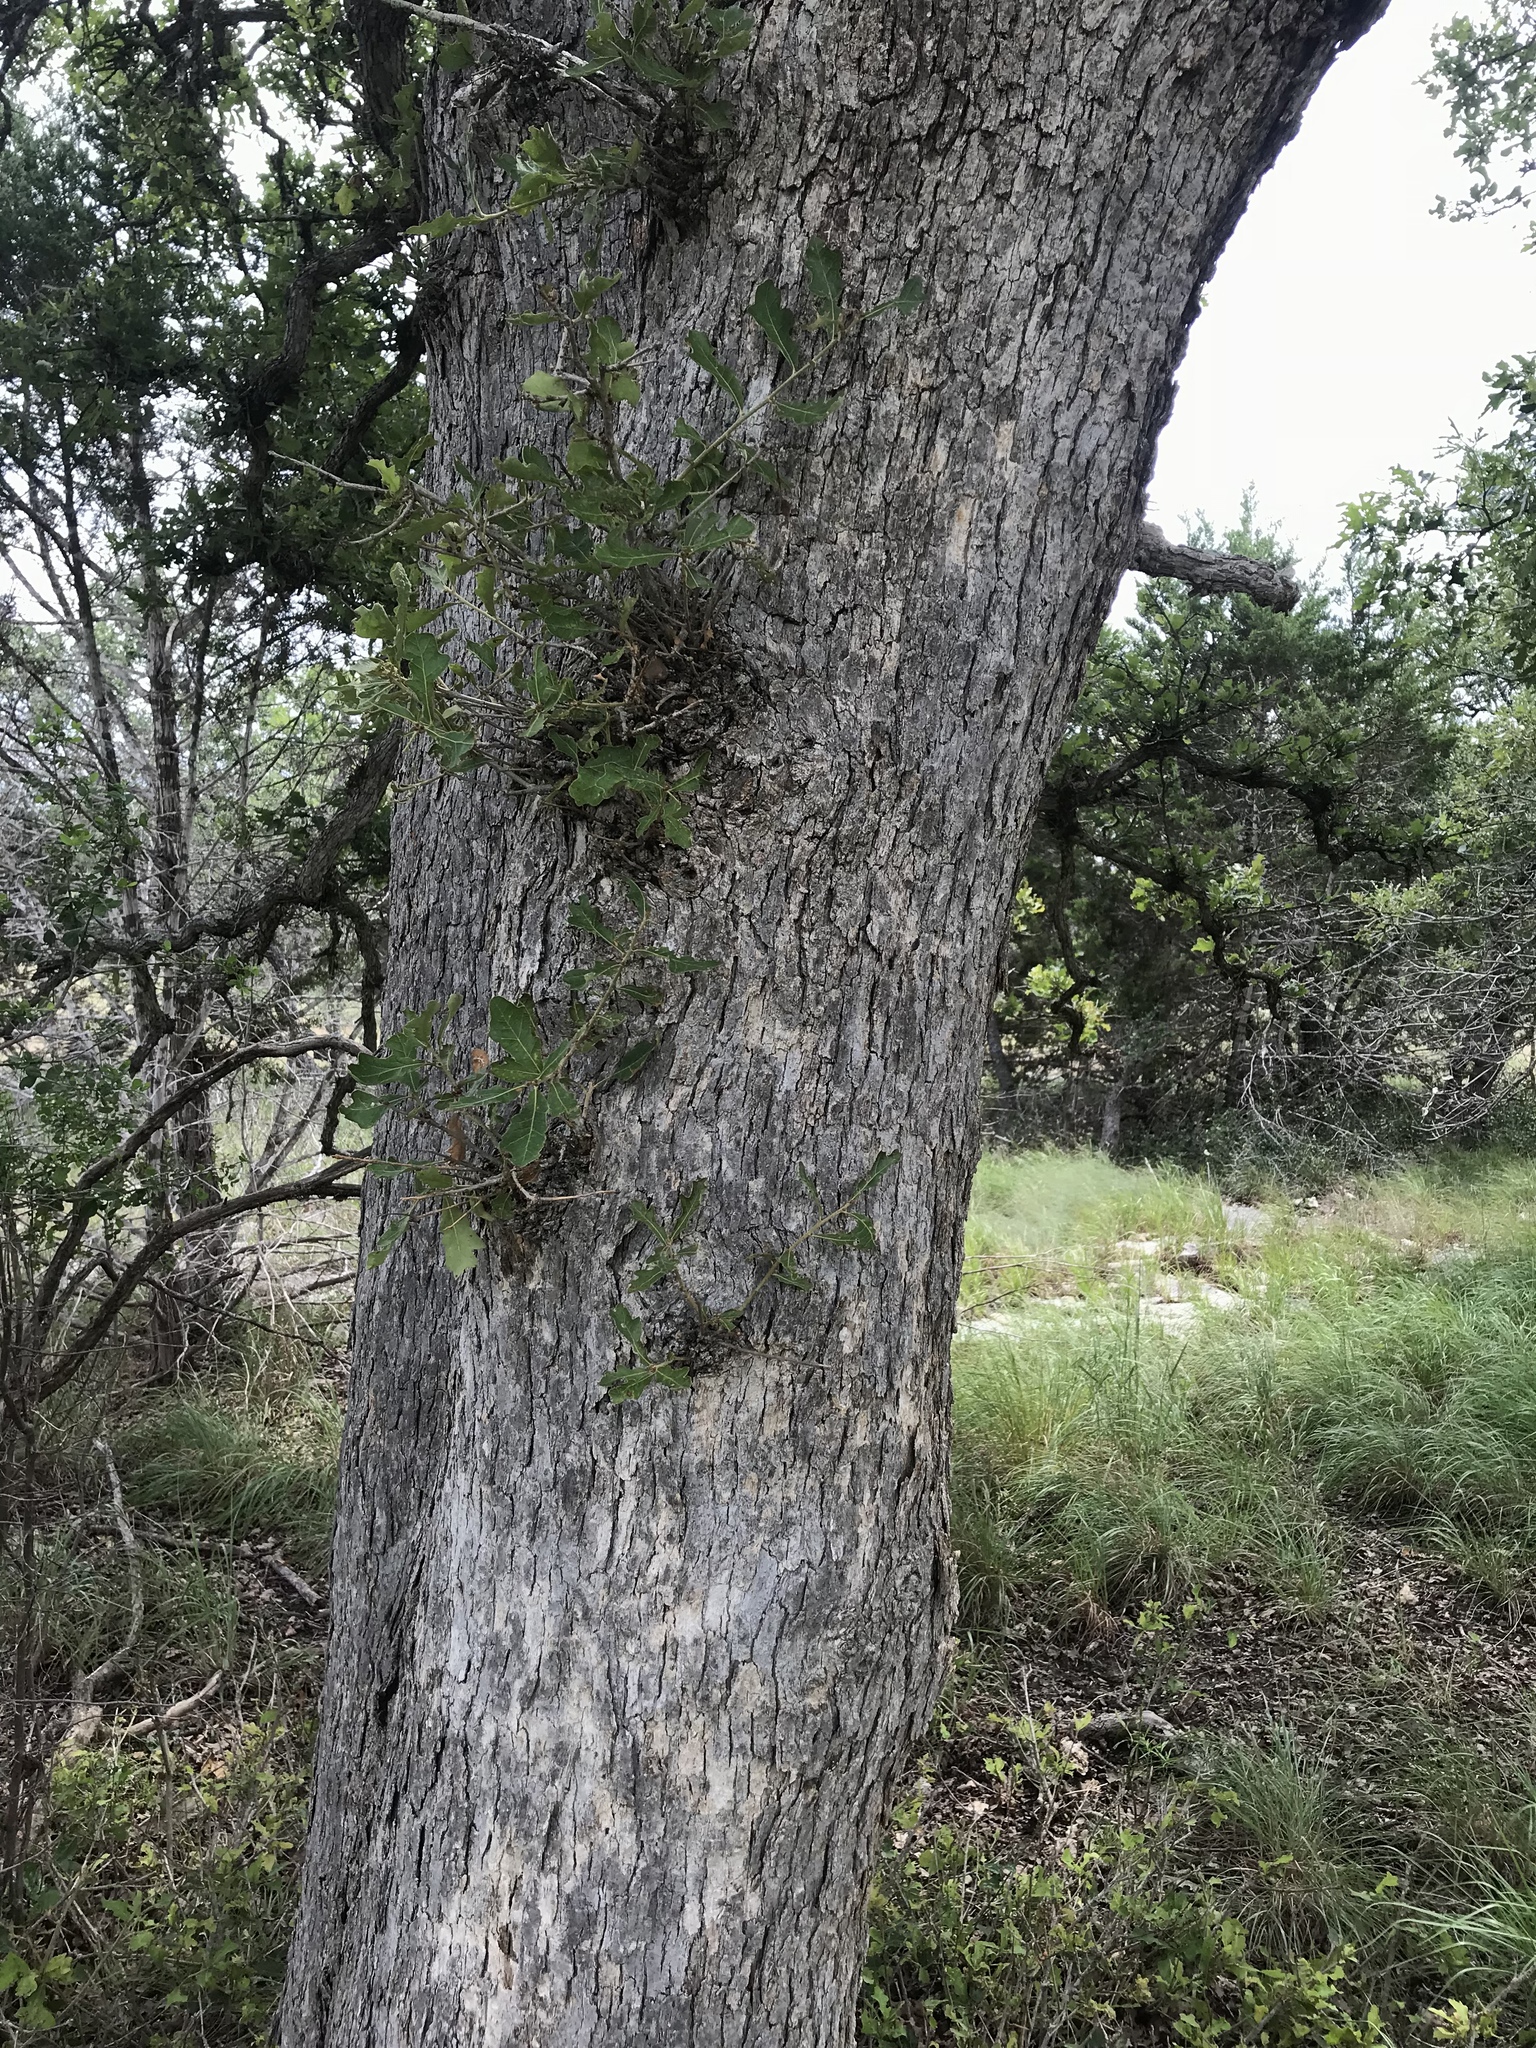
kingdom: Plantae
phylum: Tracheophyta
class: Magnoliopsida
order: Fagales
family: Fagaceae
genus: Quercus
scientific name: Quercus sinuata
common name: Durand oak
